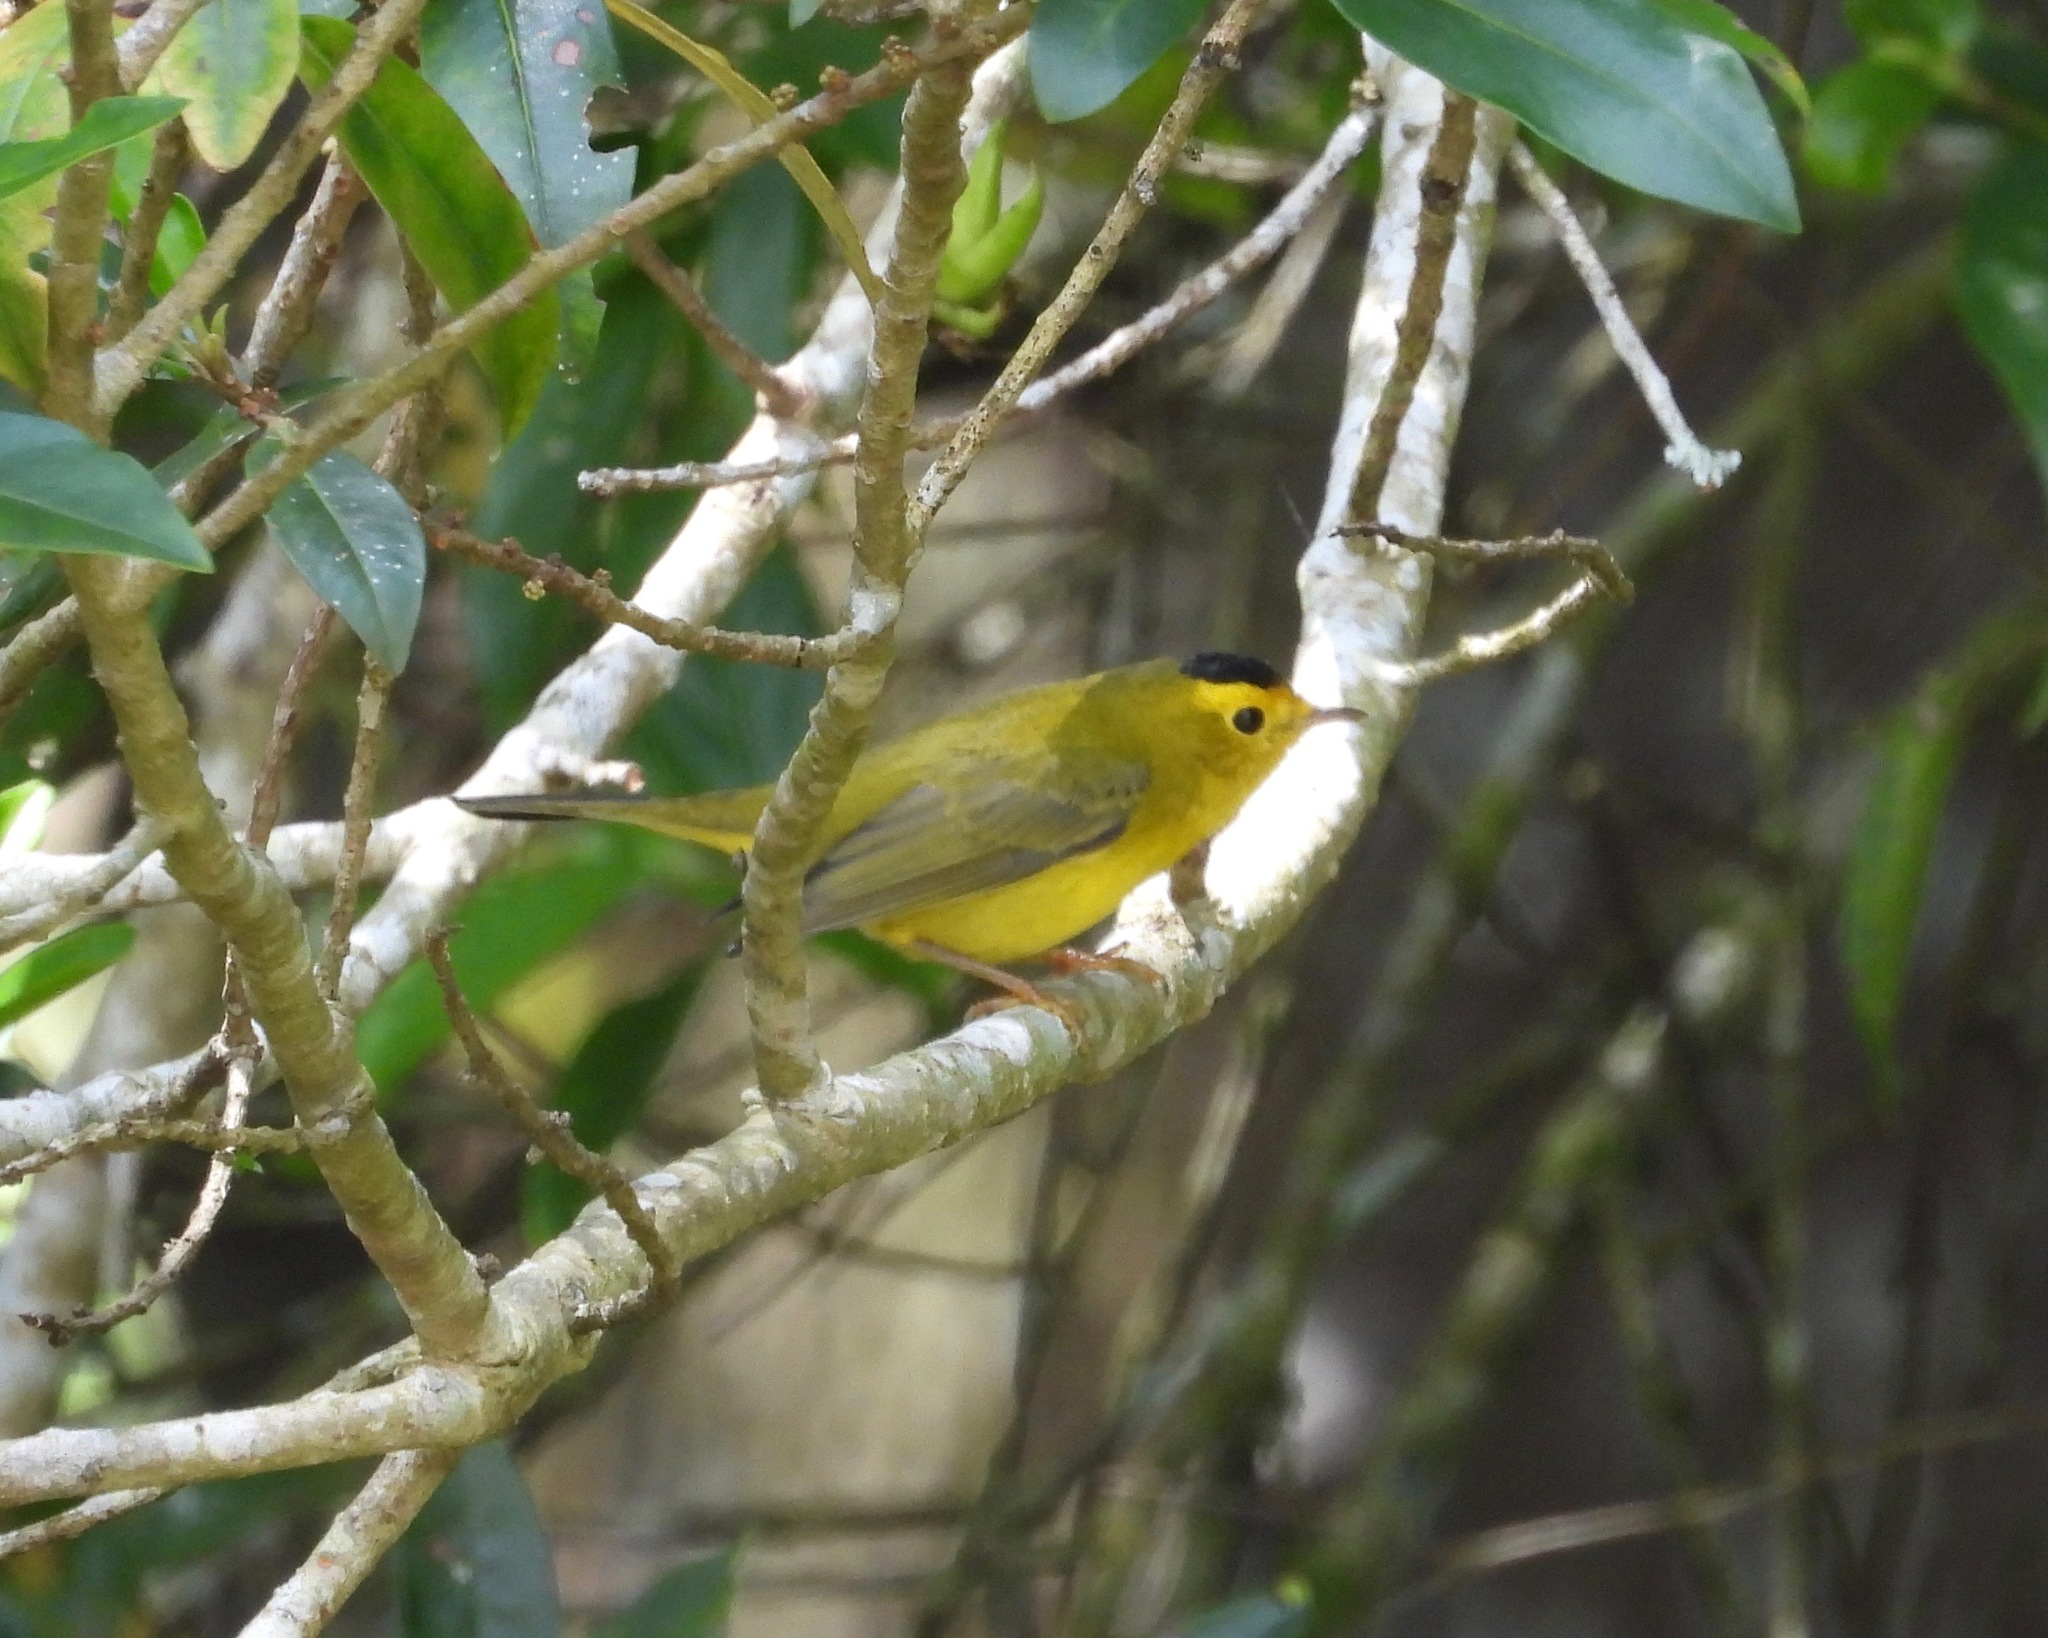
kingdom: Animalia
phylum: Chordata
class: Aves
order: Passeriformes
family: Parulidae
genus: Cardellina
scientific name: Cardellina pusilla
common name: Wilson's warbler
